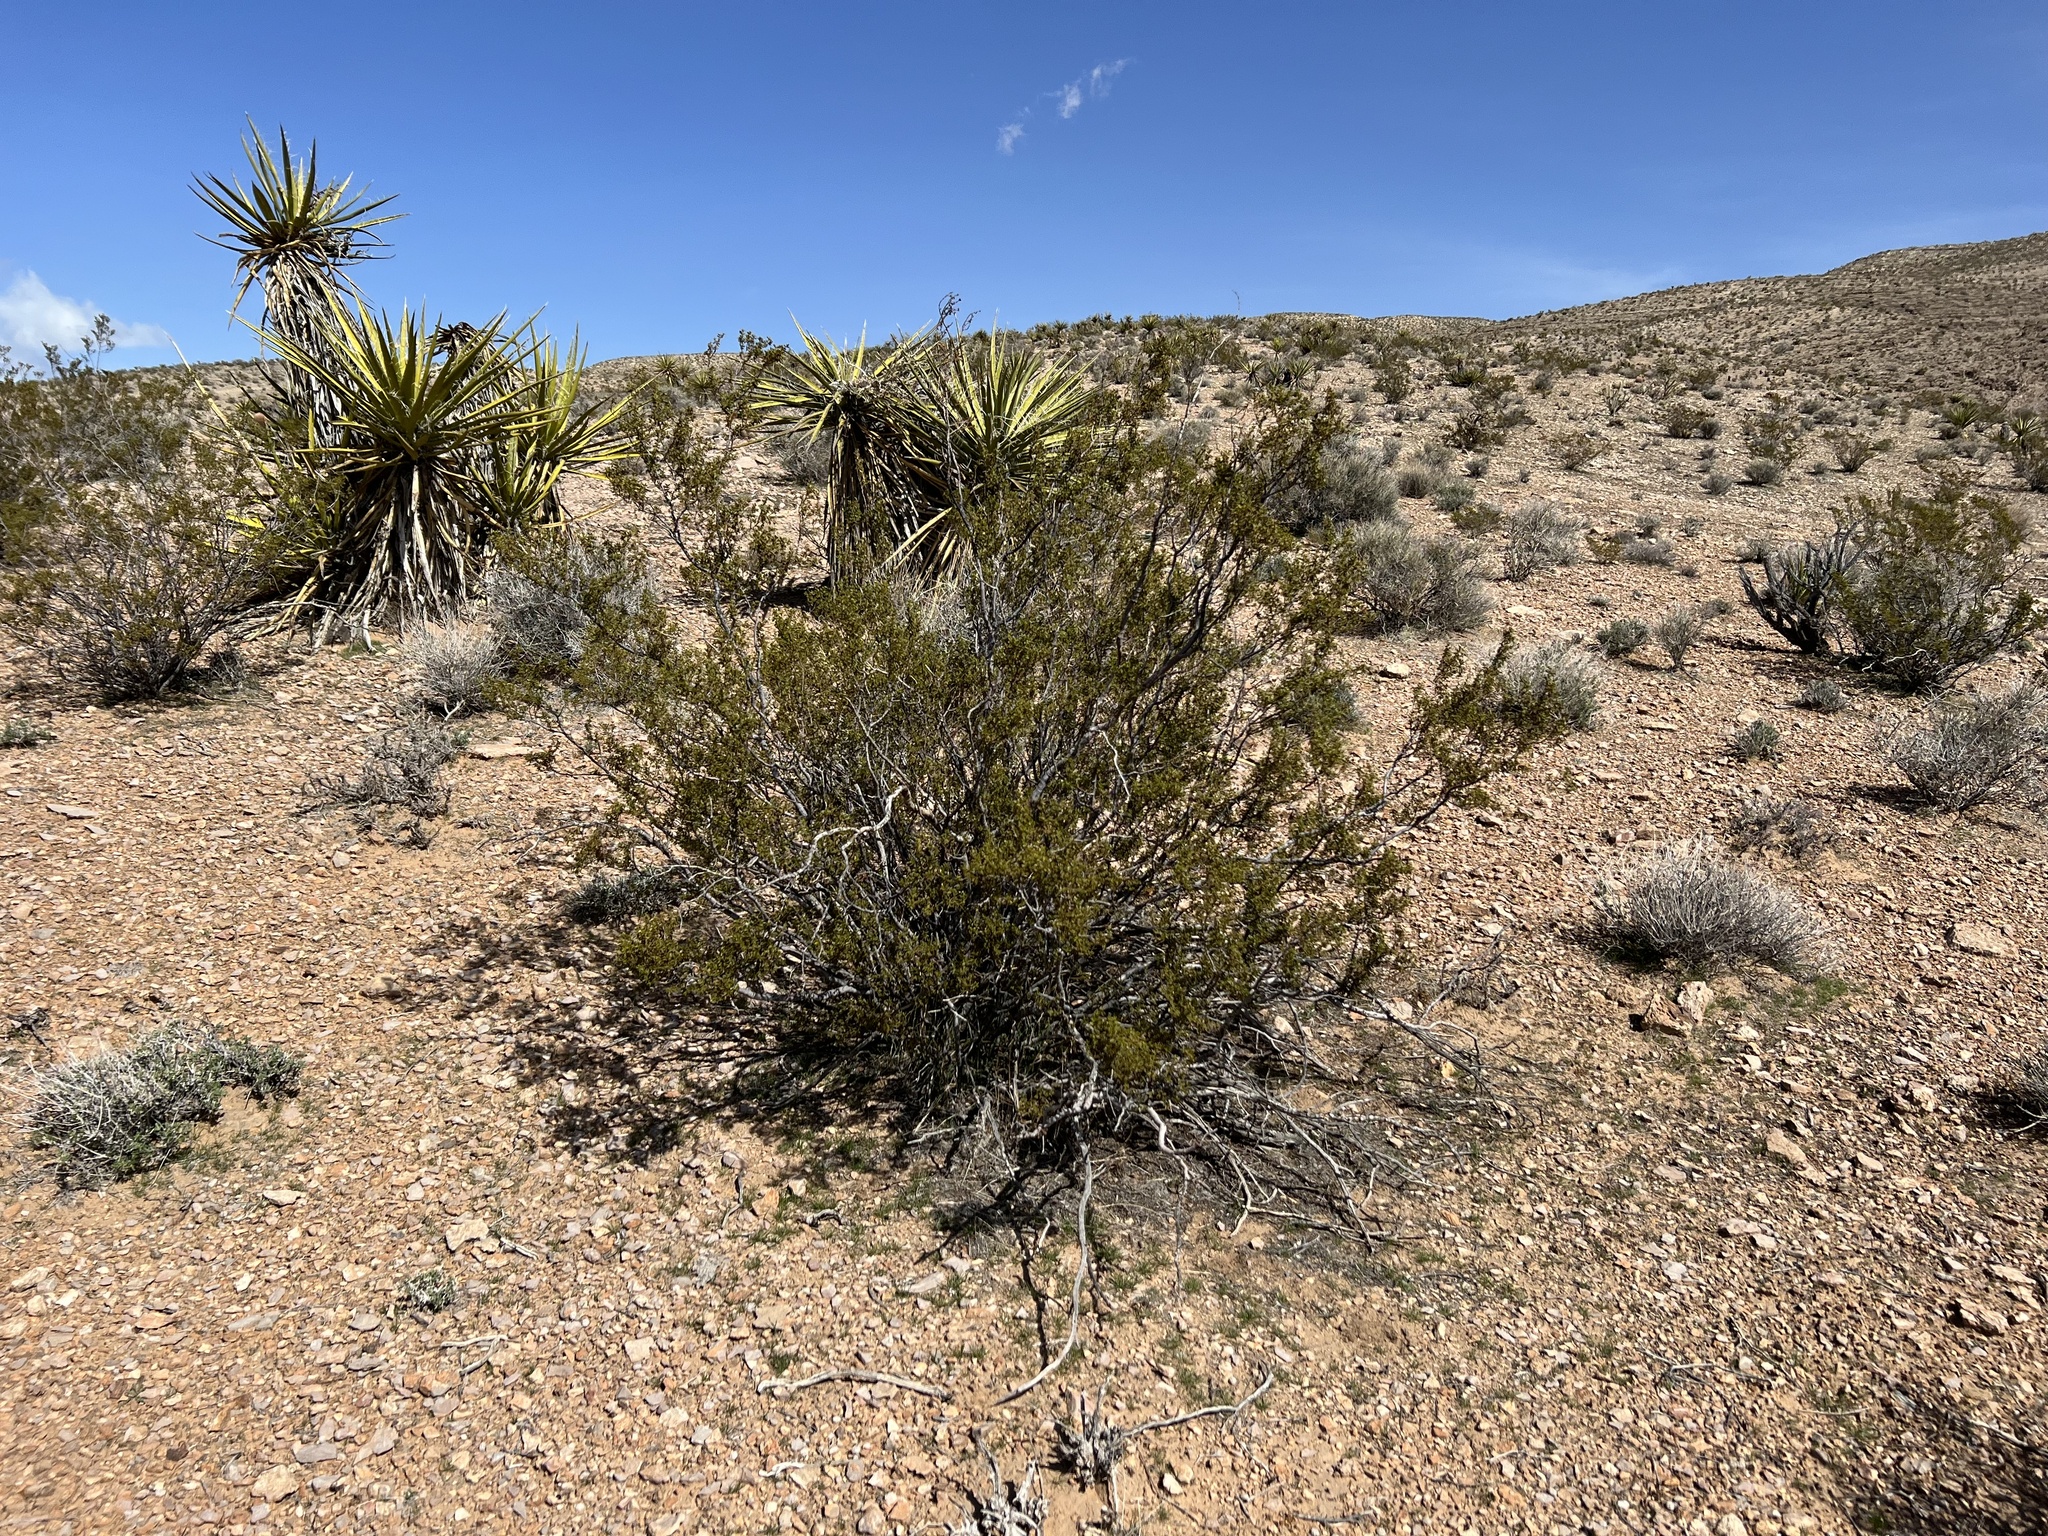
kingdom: Plantae
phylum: Tracheophyta
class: Magnoliopsida
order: Zygophyllales
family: Zygophyllaceae
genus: Larrea
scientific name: Larrea tridentata
